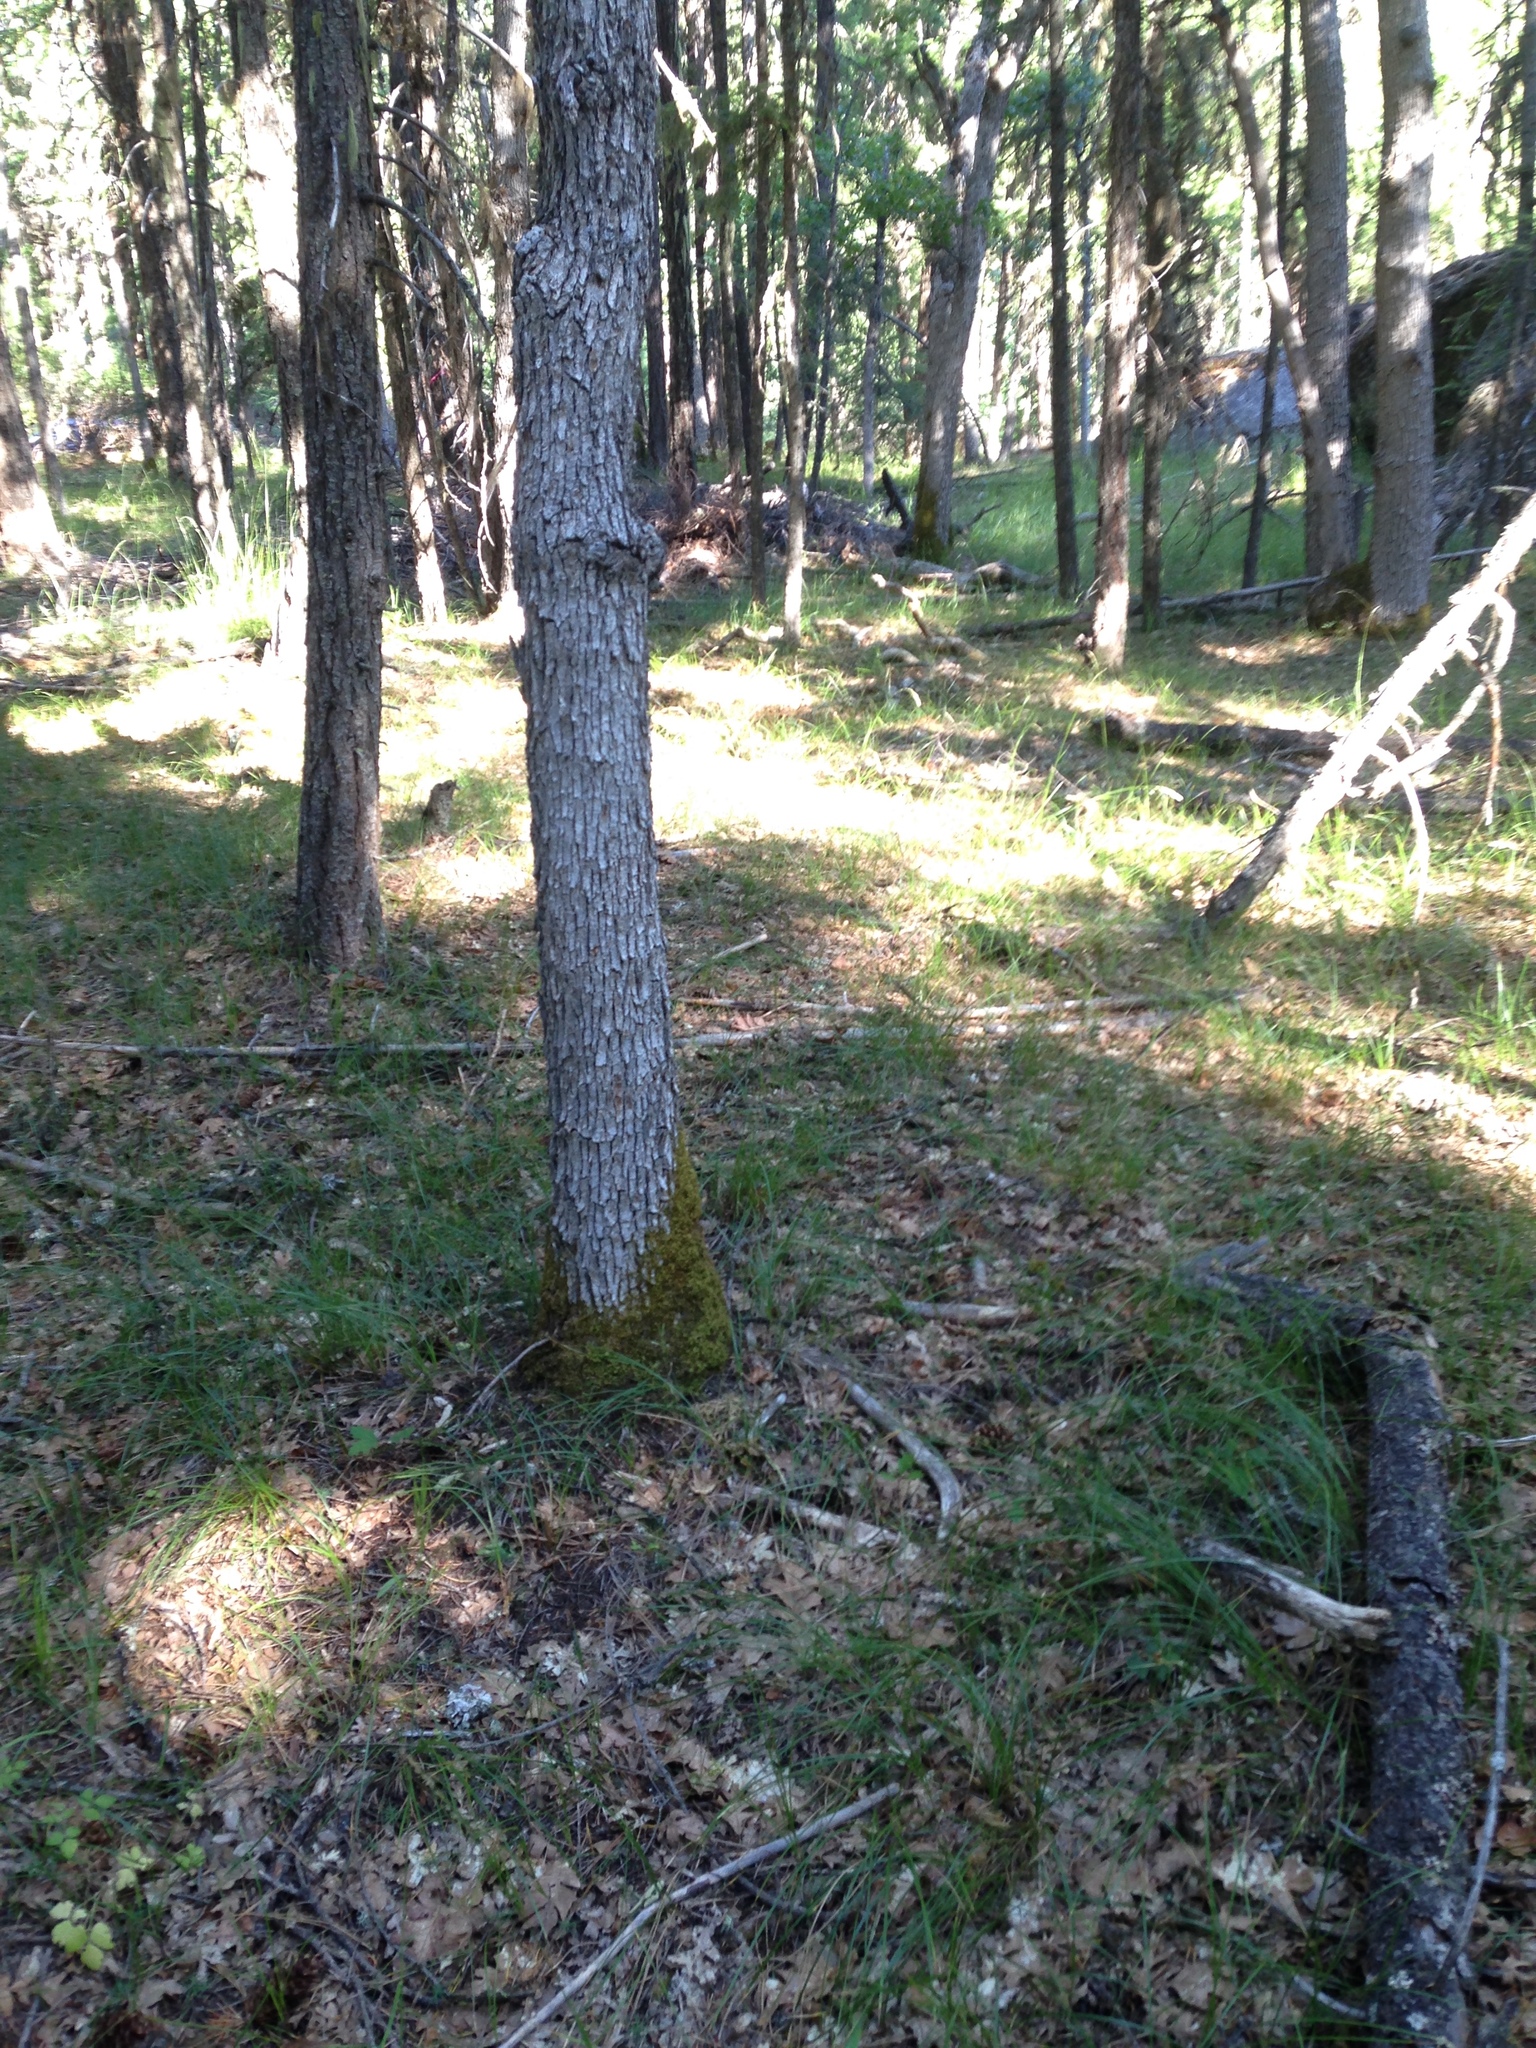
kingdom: Animalia
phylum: Mollusca
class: Gastropoda
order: Stylommatophora
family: Xanthonychidae
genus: Monadenia
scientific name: Monadenia fidelis
